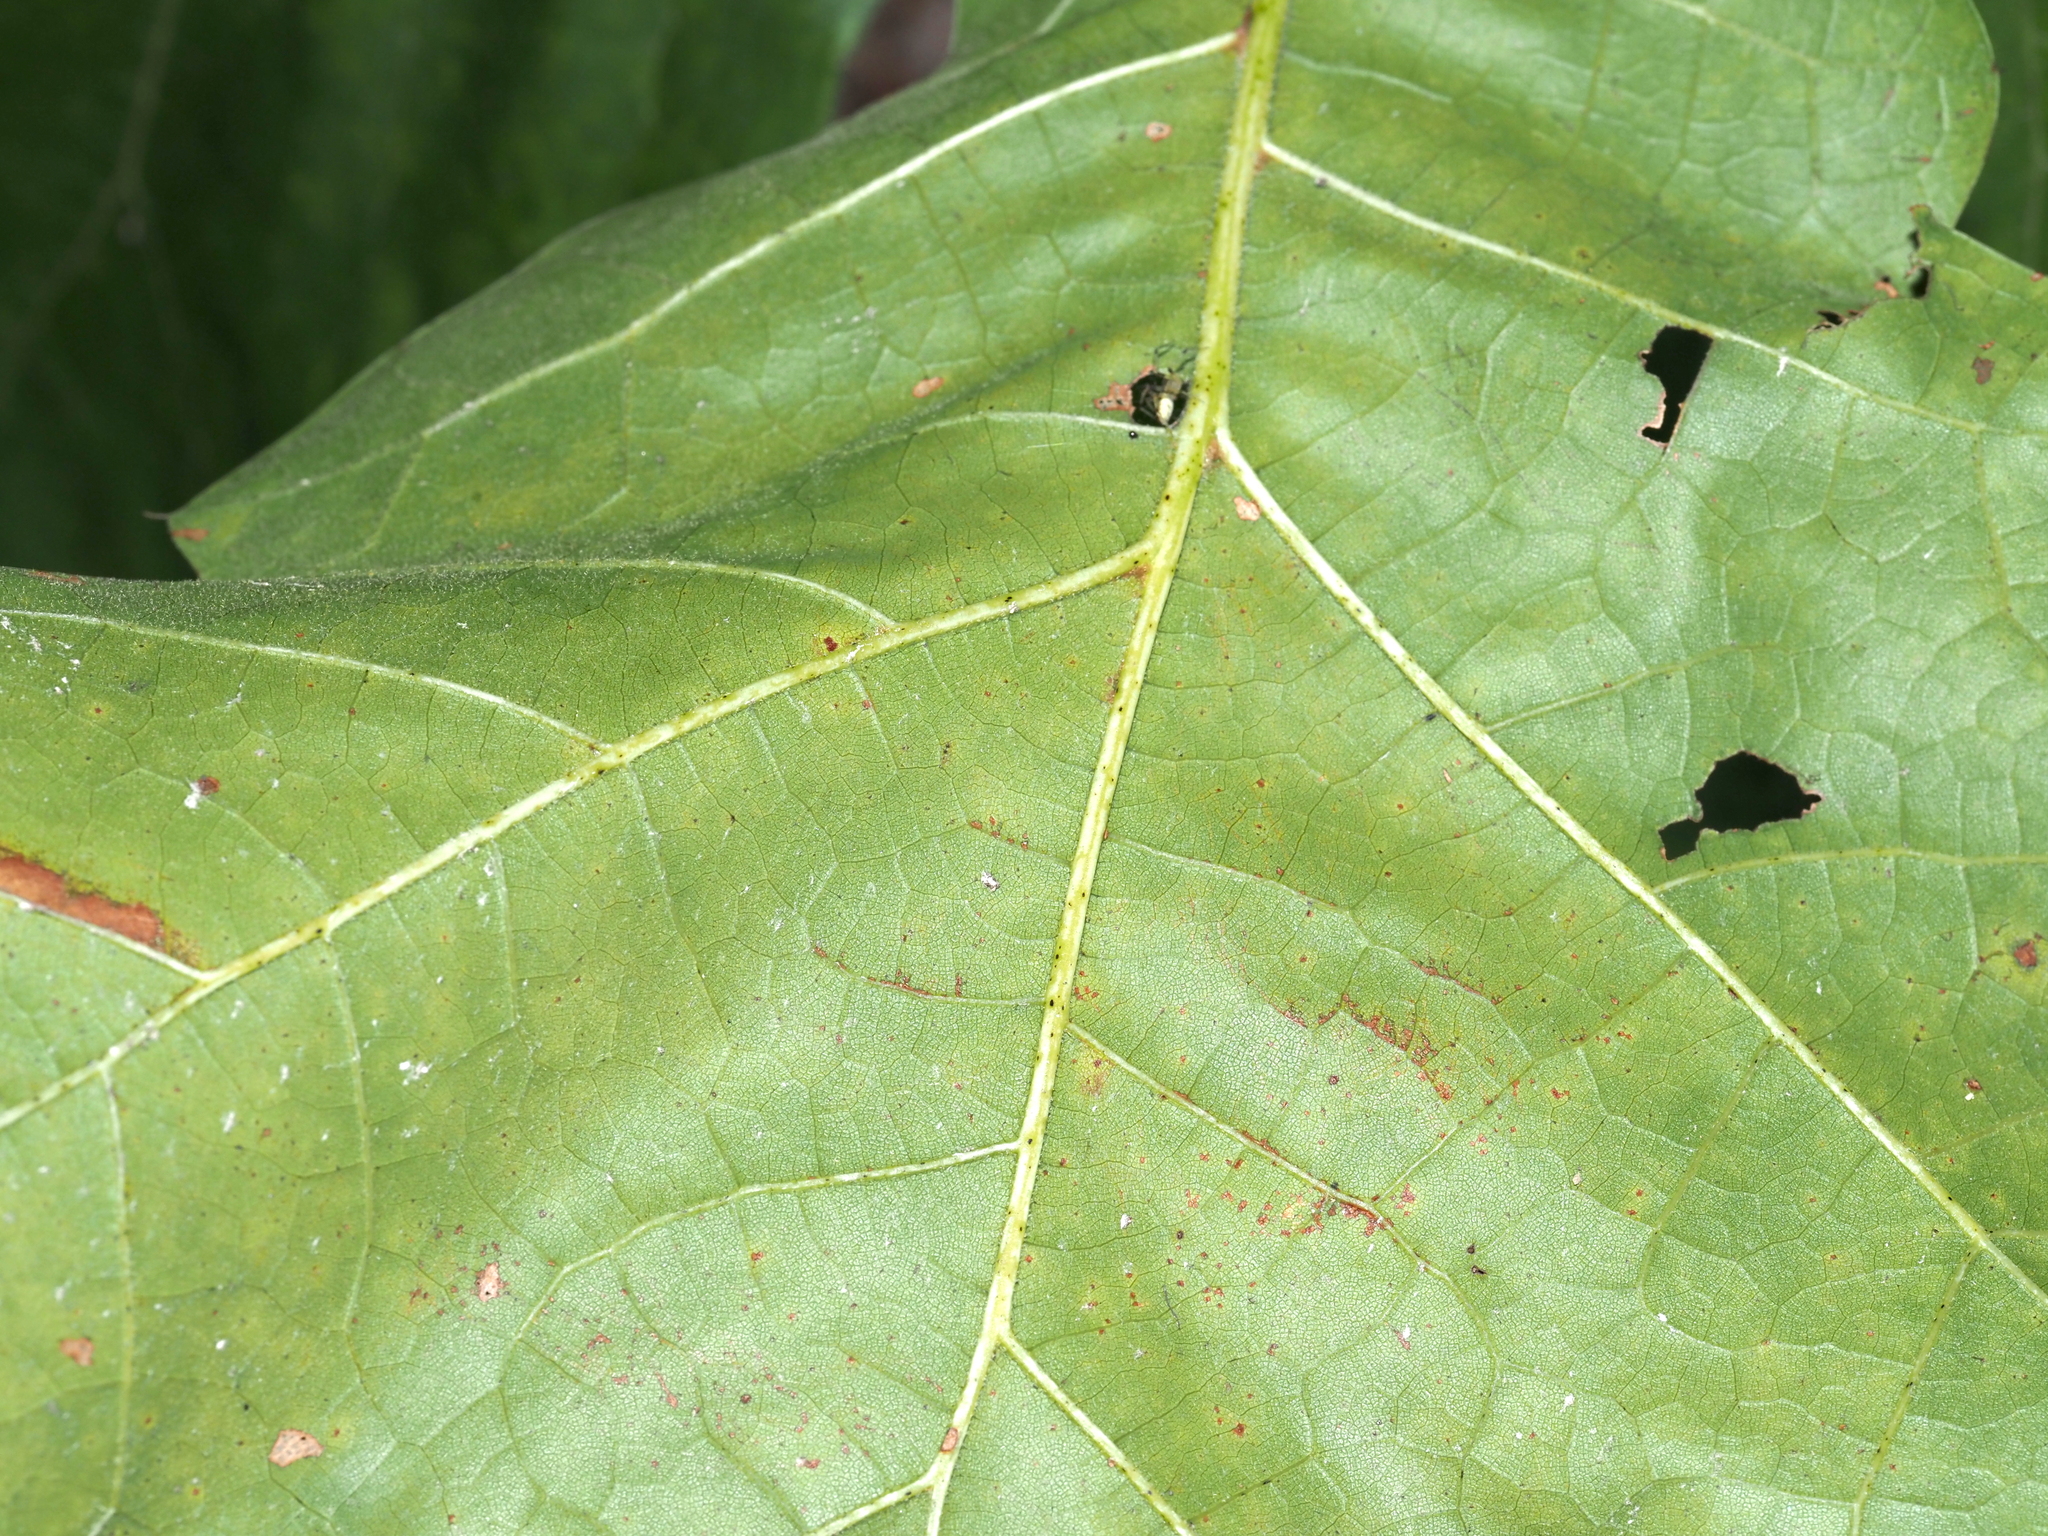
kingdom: Plantae
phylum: Tracheophyta
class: Magnoliopsida
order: Fagales
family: Fagaceae
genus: Quercus
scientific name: Quercus marilandica
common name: Blackjack oak
